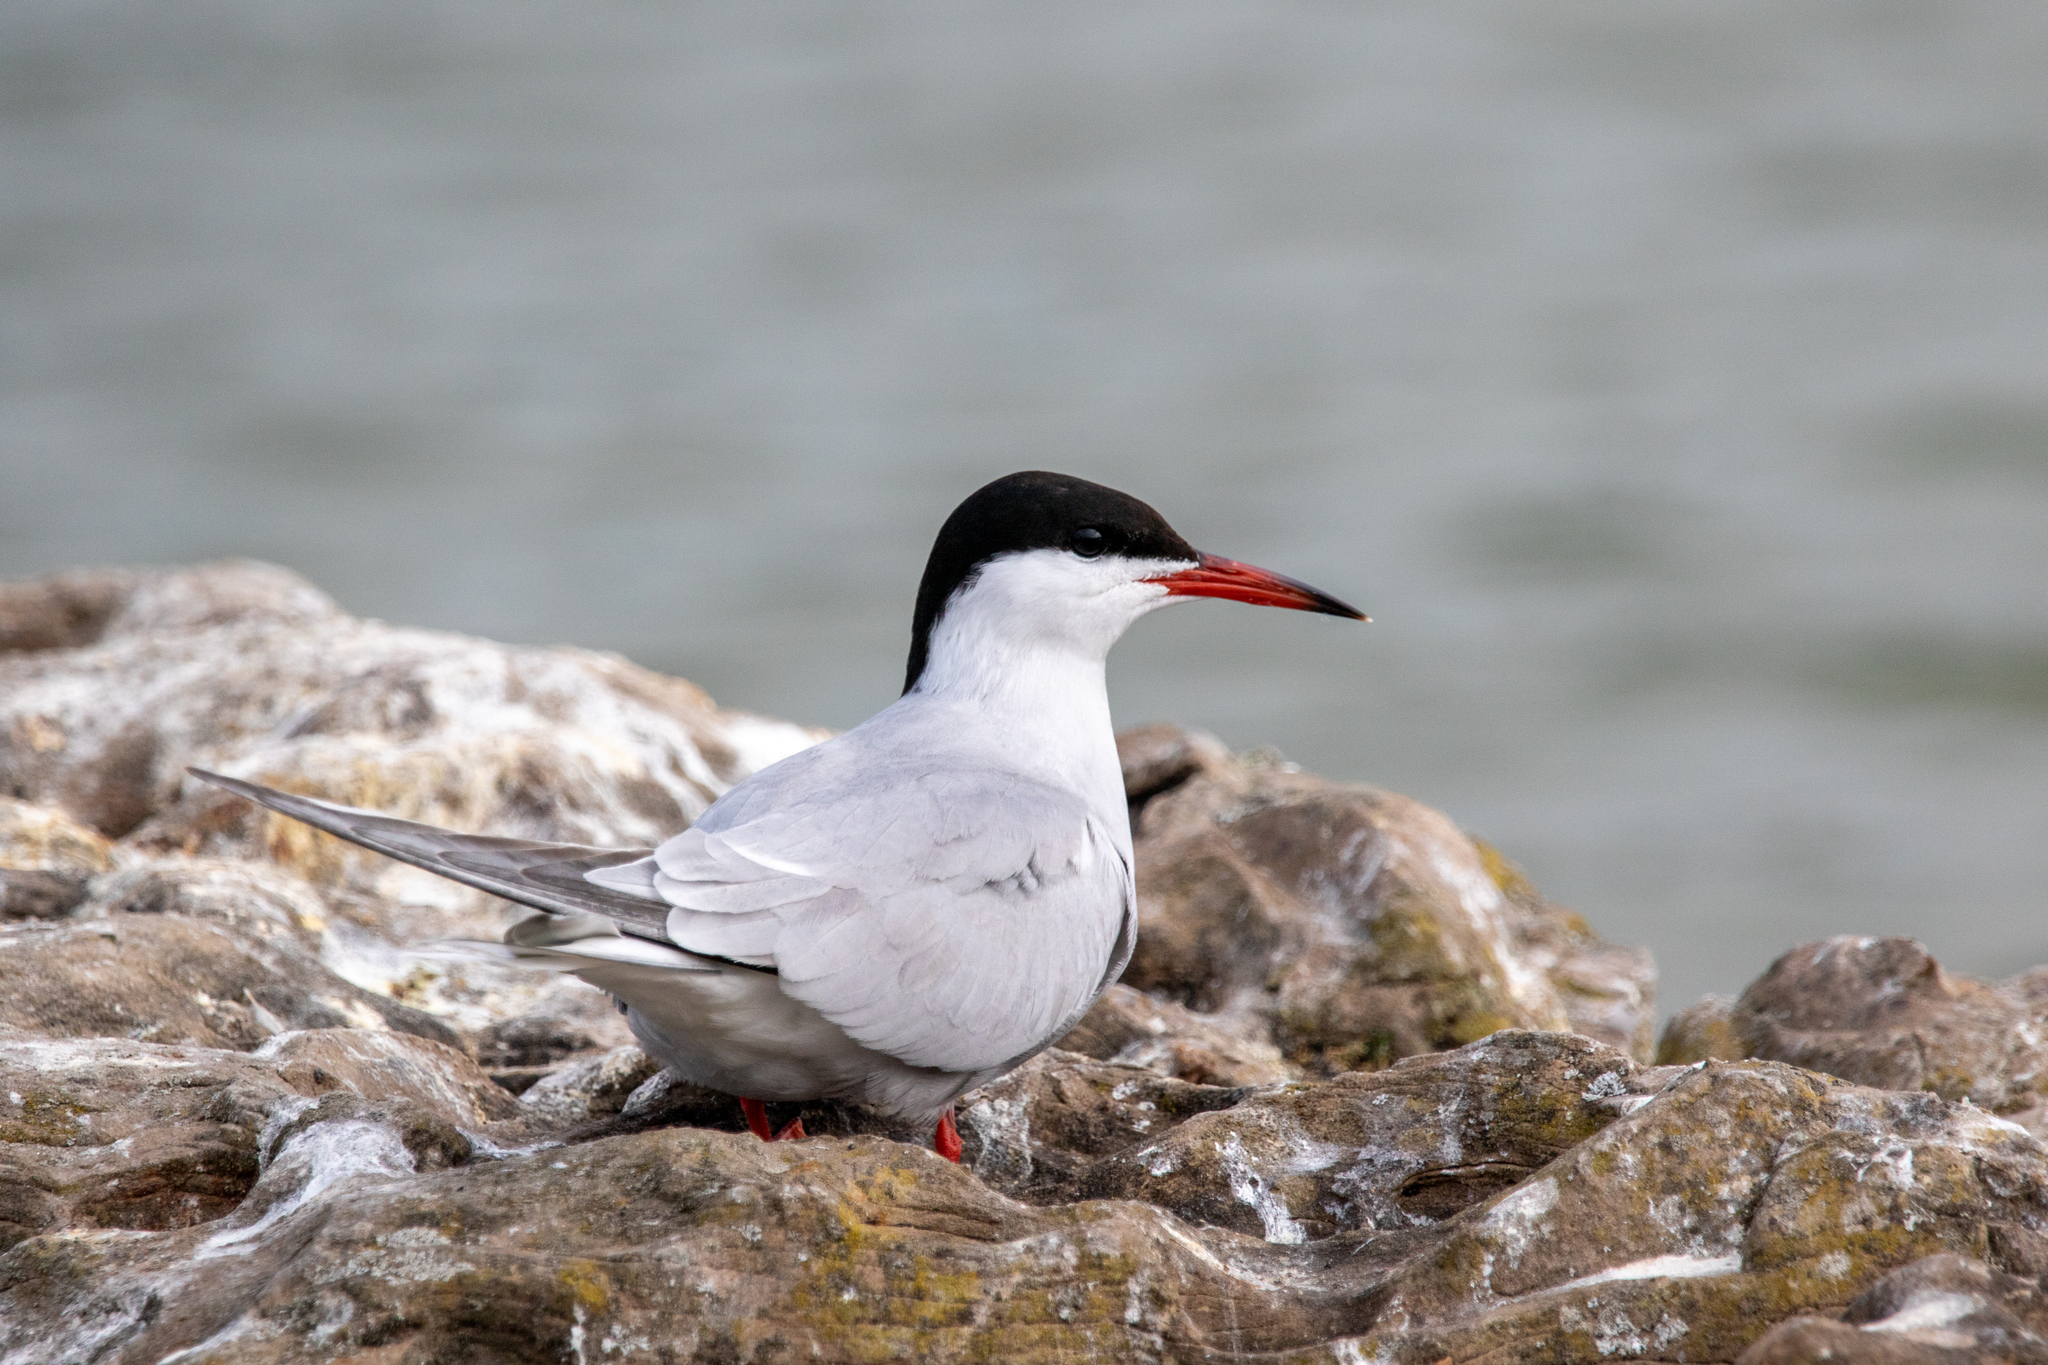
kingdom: Animalia
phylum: Chordata
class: Aves
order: Charadriiformes
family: Laridae
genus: Sterna
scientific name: Sterna hirundo
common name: Common tern
